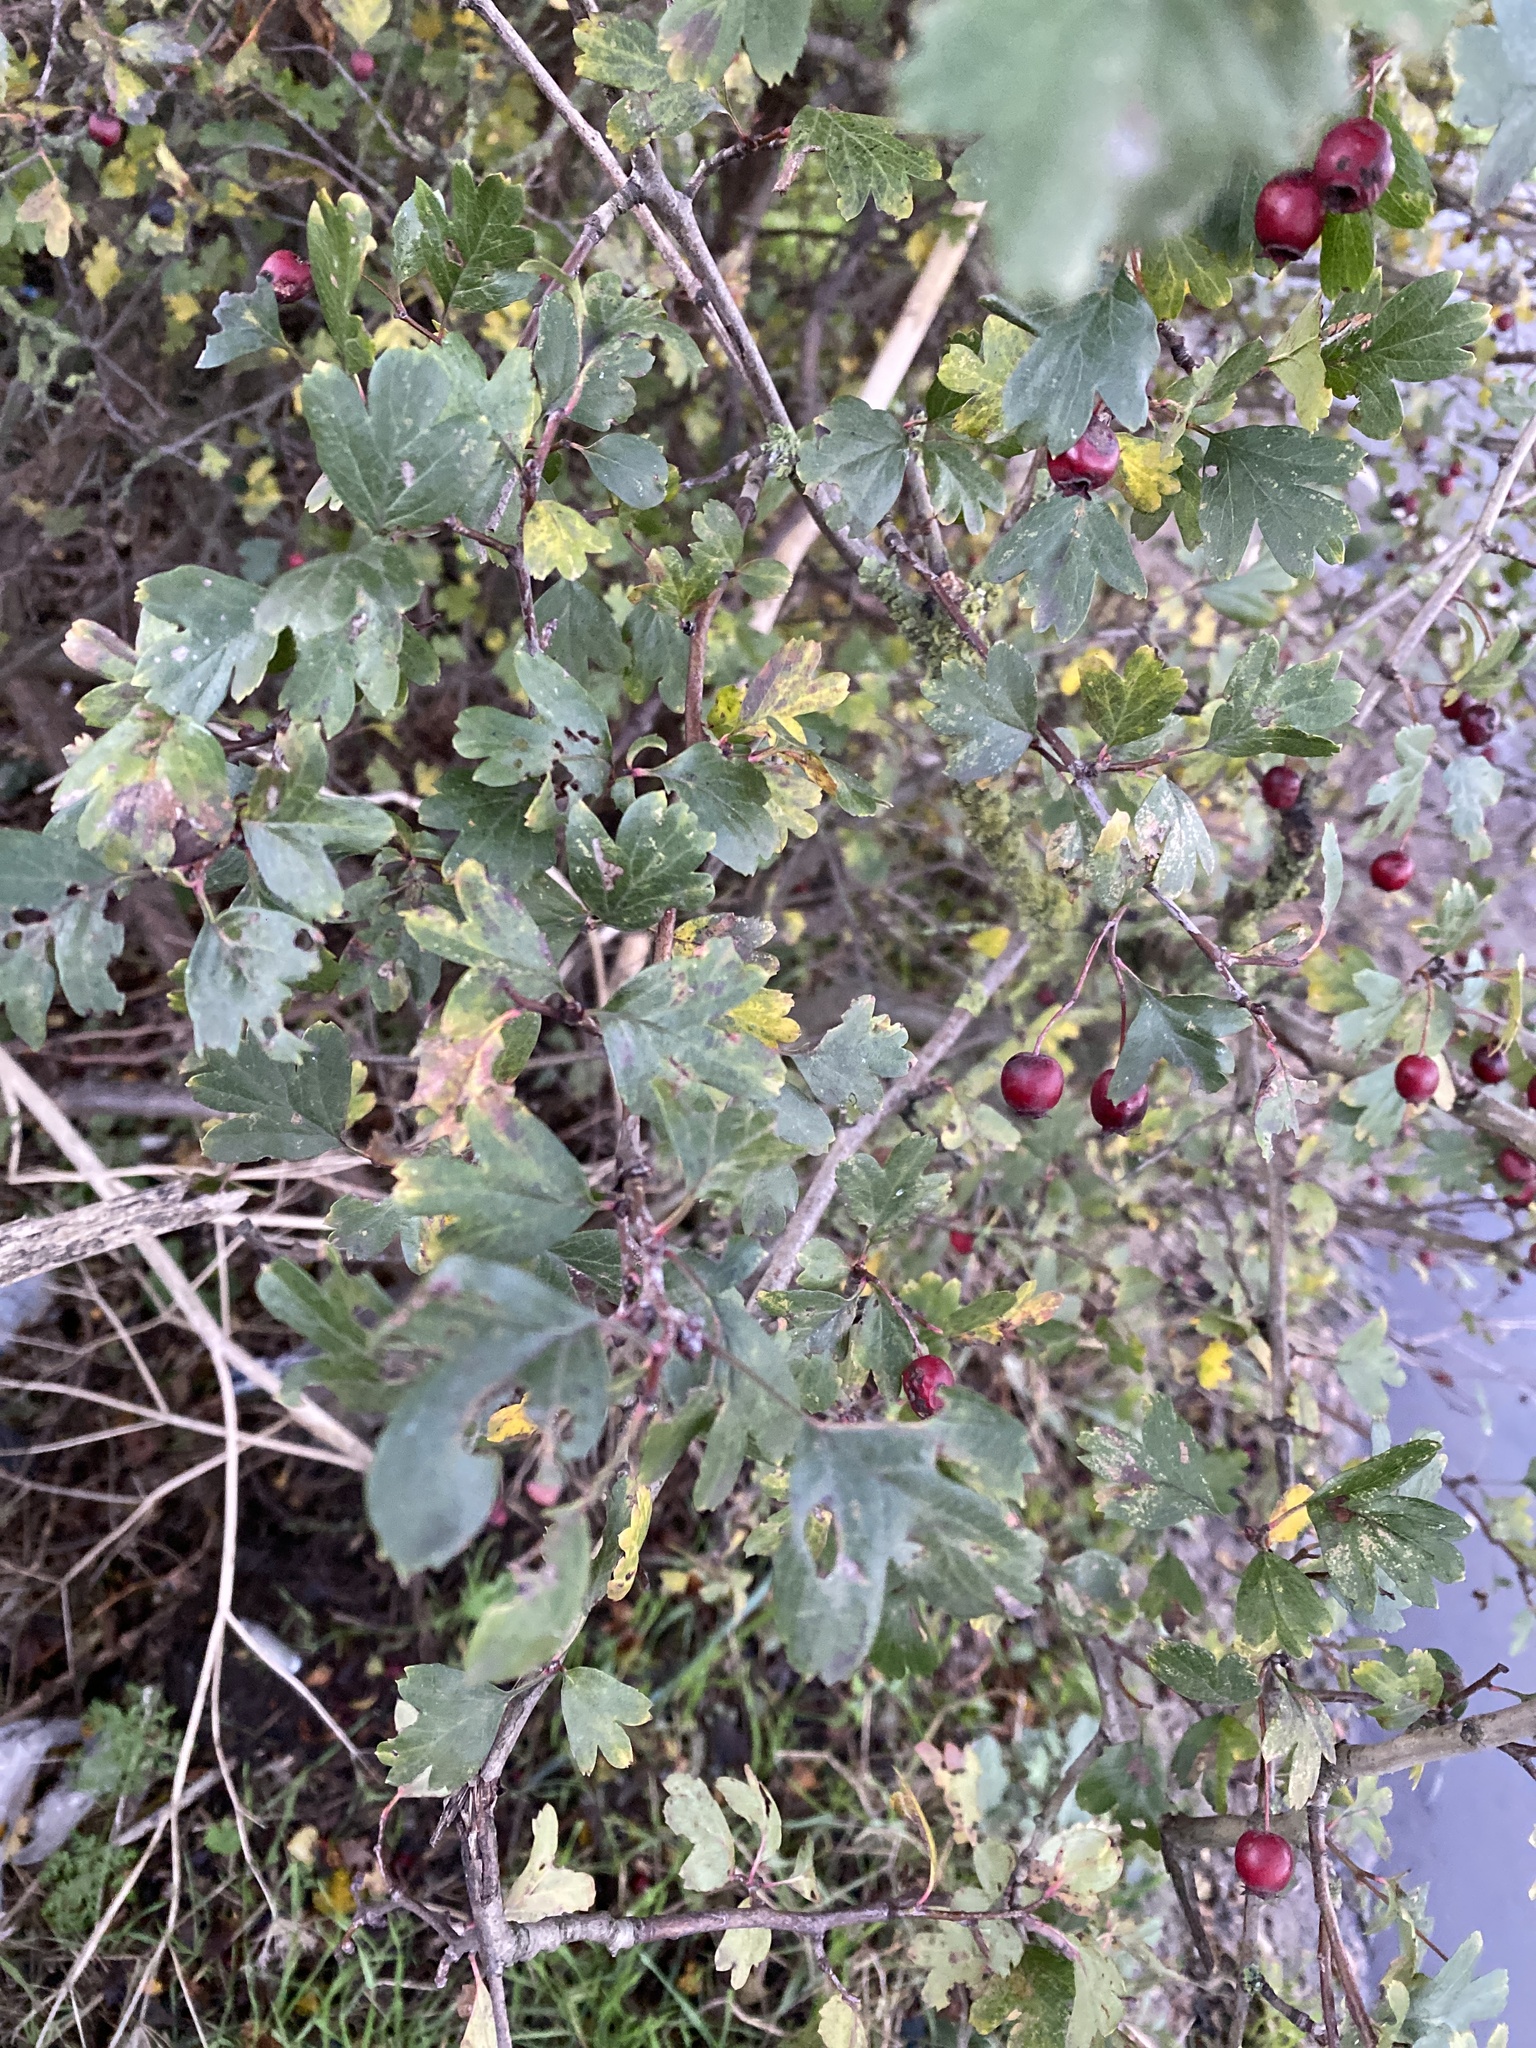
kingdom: Plantae
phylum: Tracheophyta
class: Magnoliopsida
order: Rosales
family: Rosaceae
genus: Crataegus
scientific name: Crataegus monogyna
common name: Hawthorn
